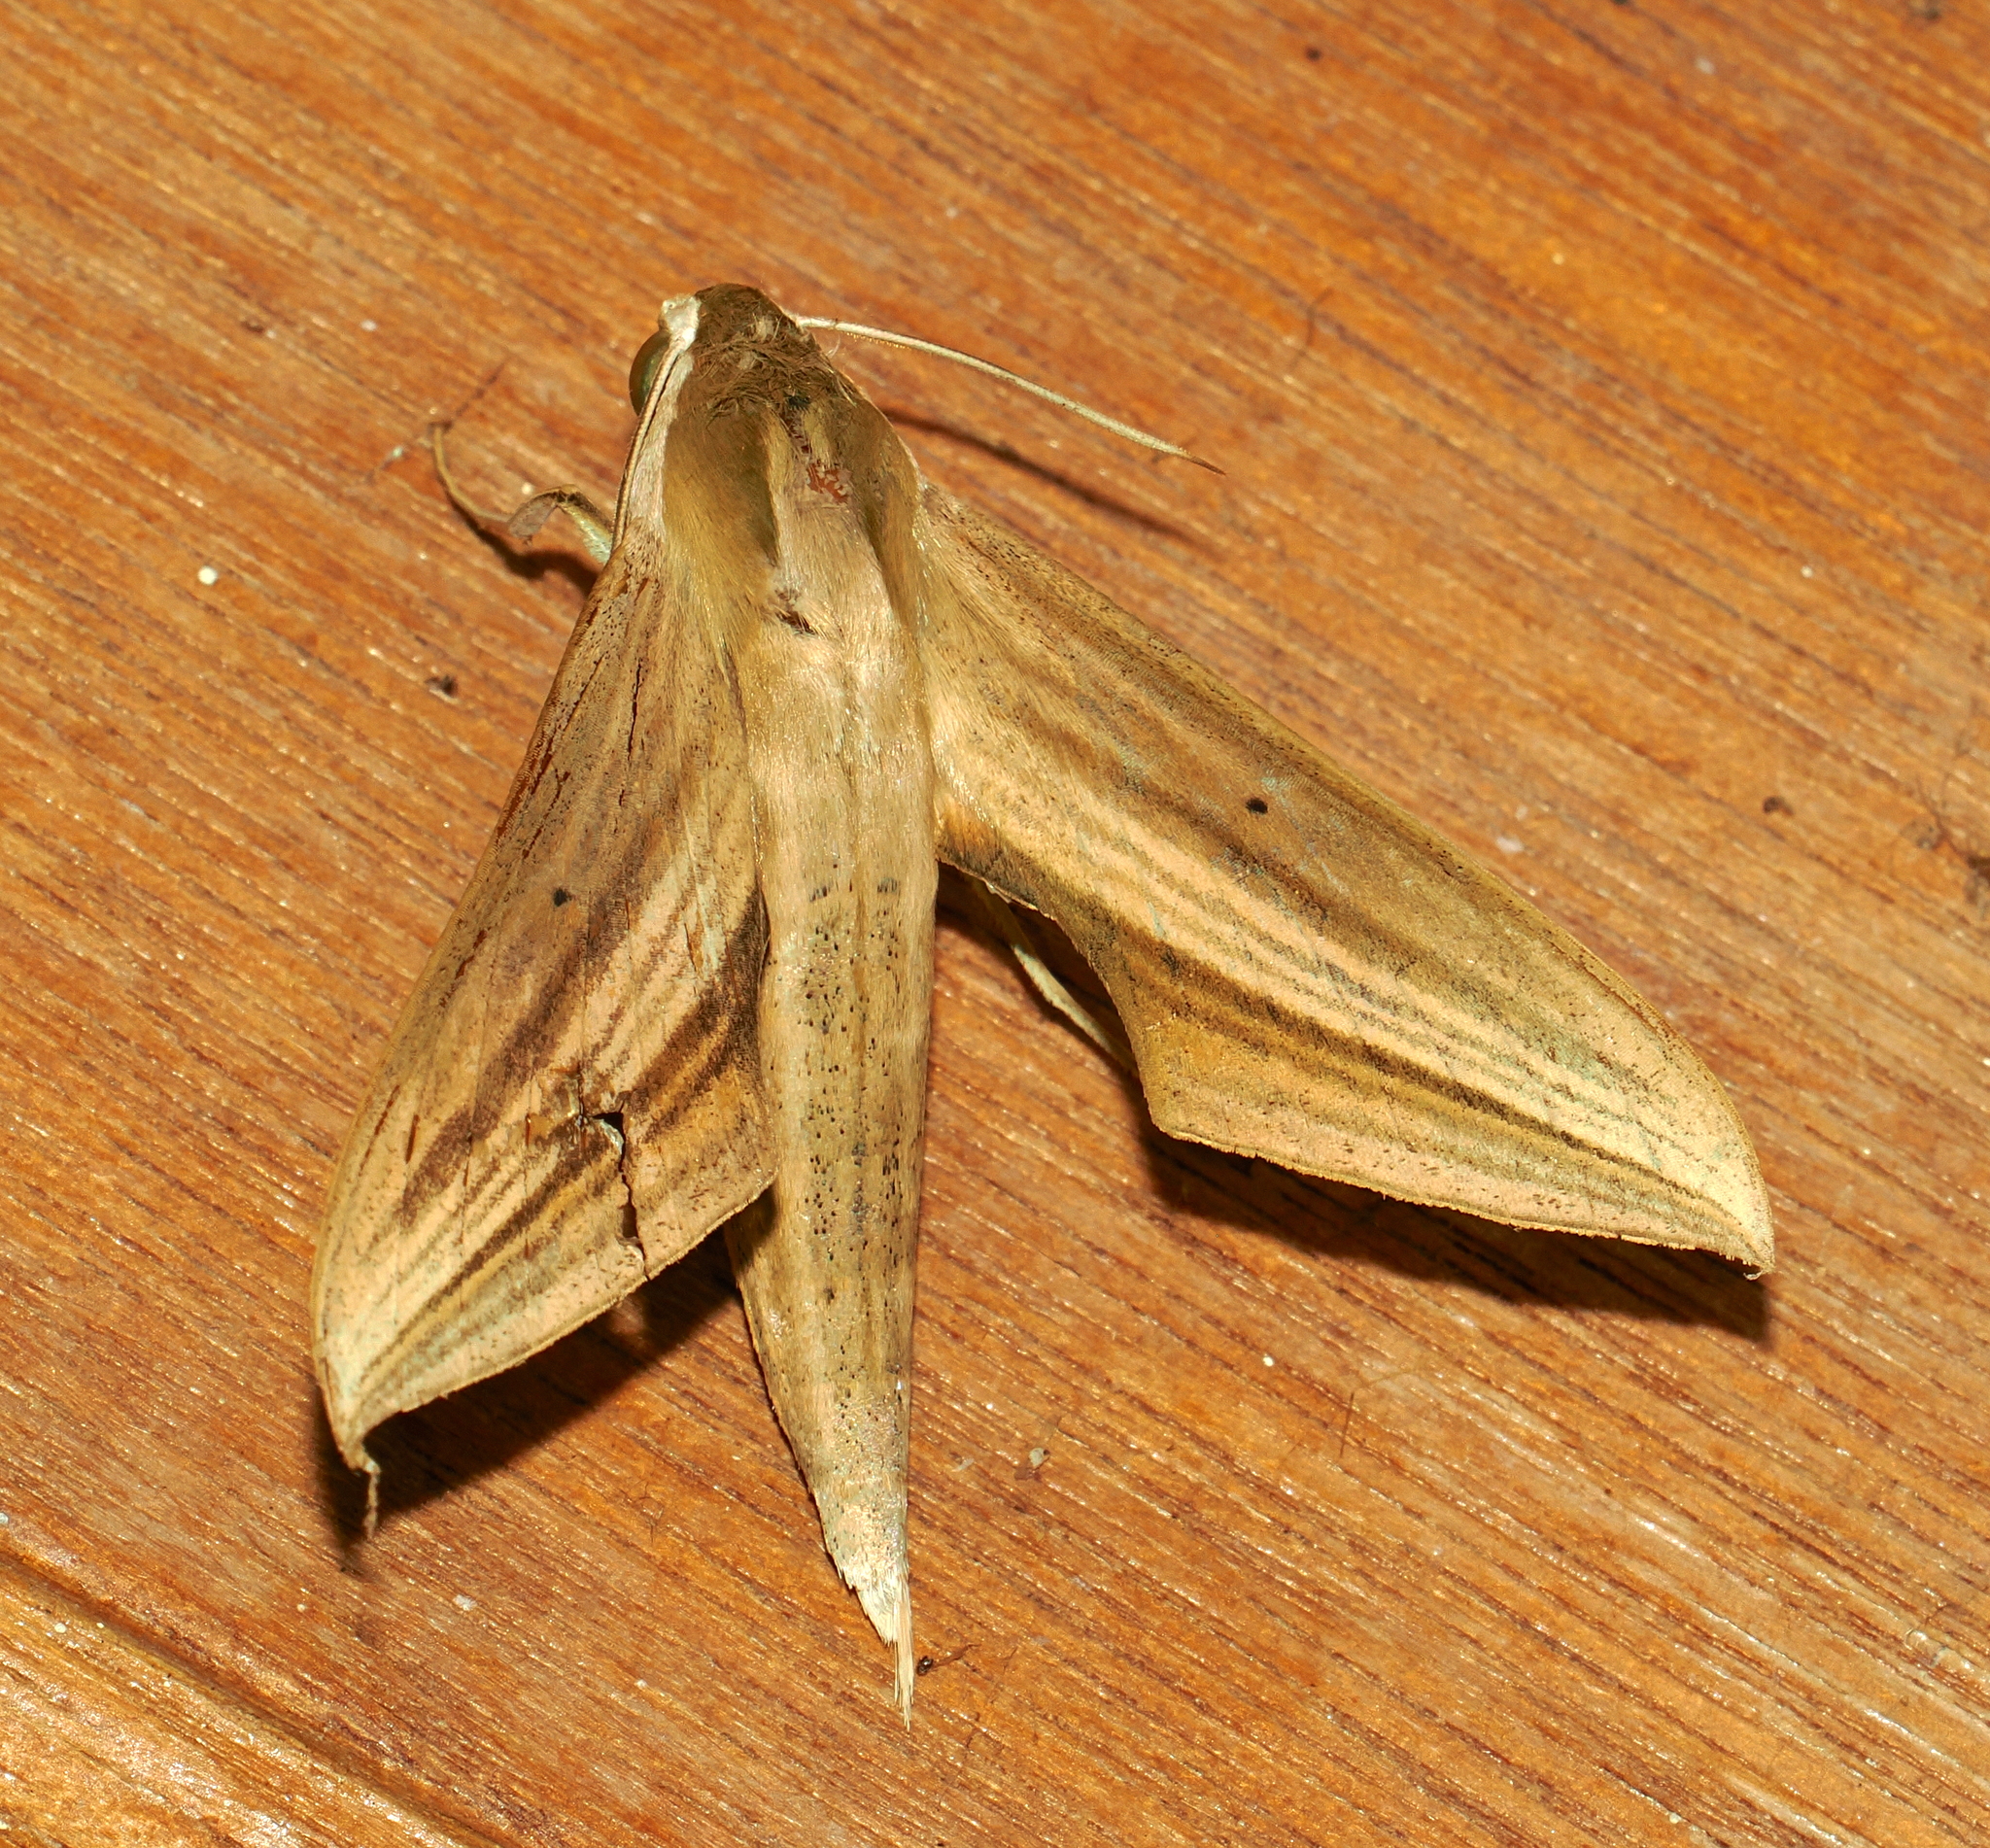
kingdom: Animalia
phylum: Arthropoda
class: Insecta
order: Lepidoptera
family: Sphingidae
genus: Xylophanes
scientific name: Xylophanes loelia
